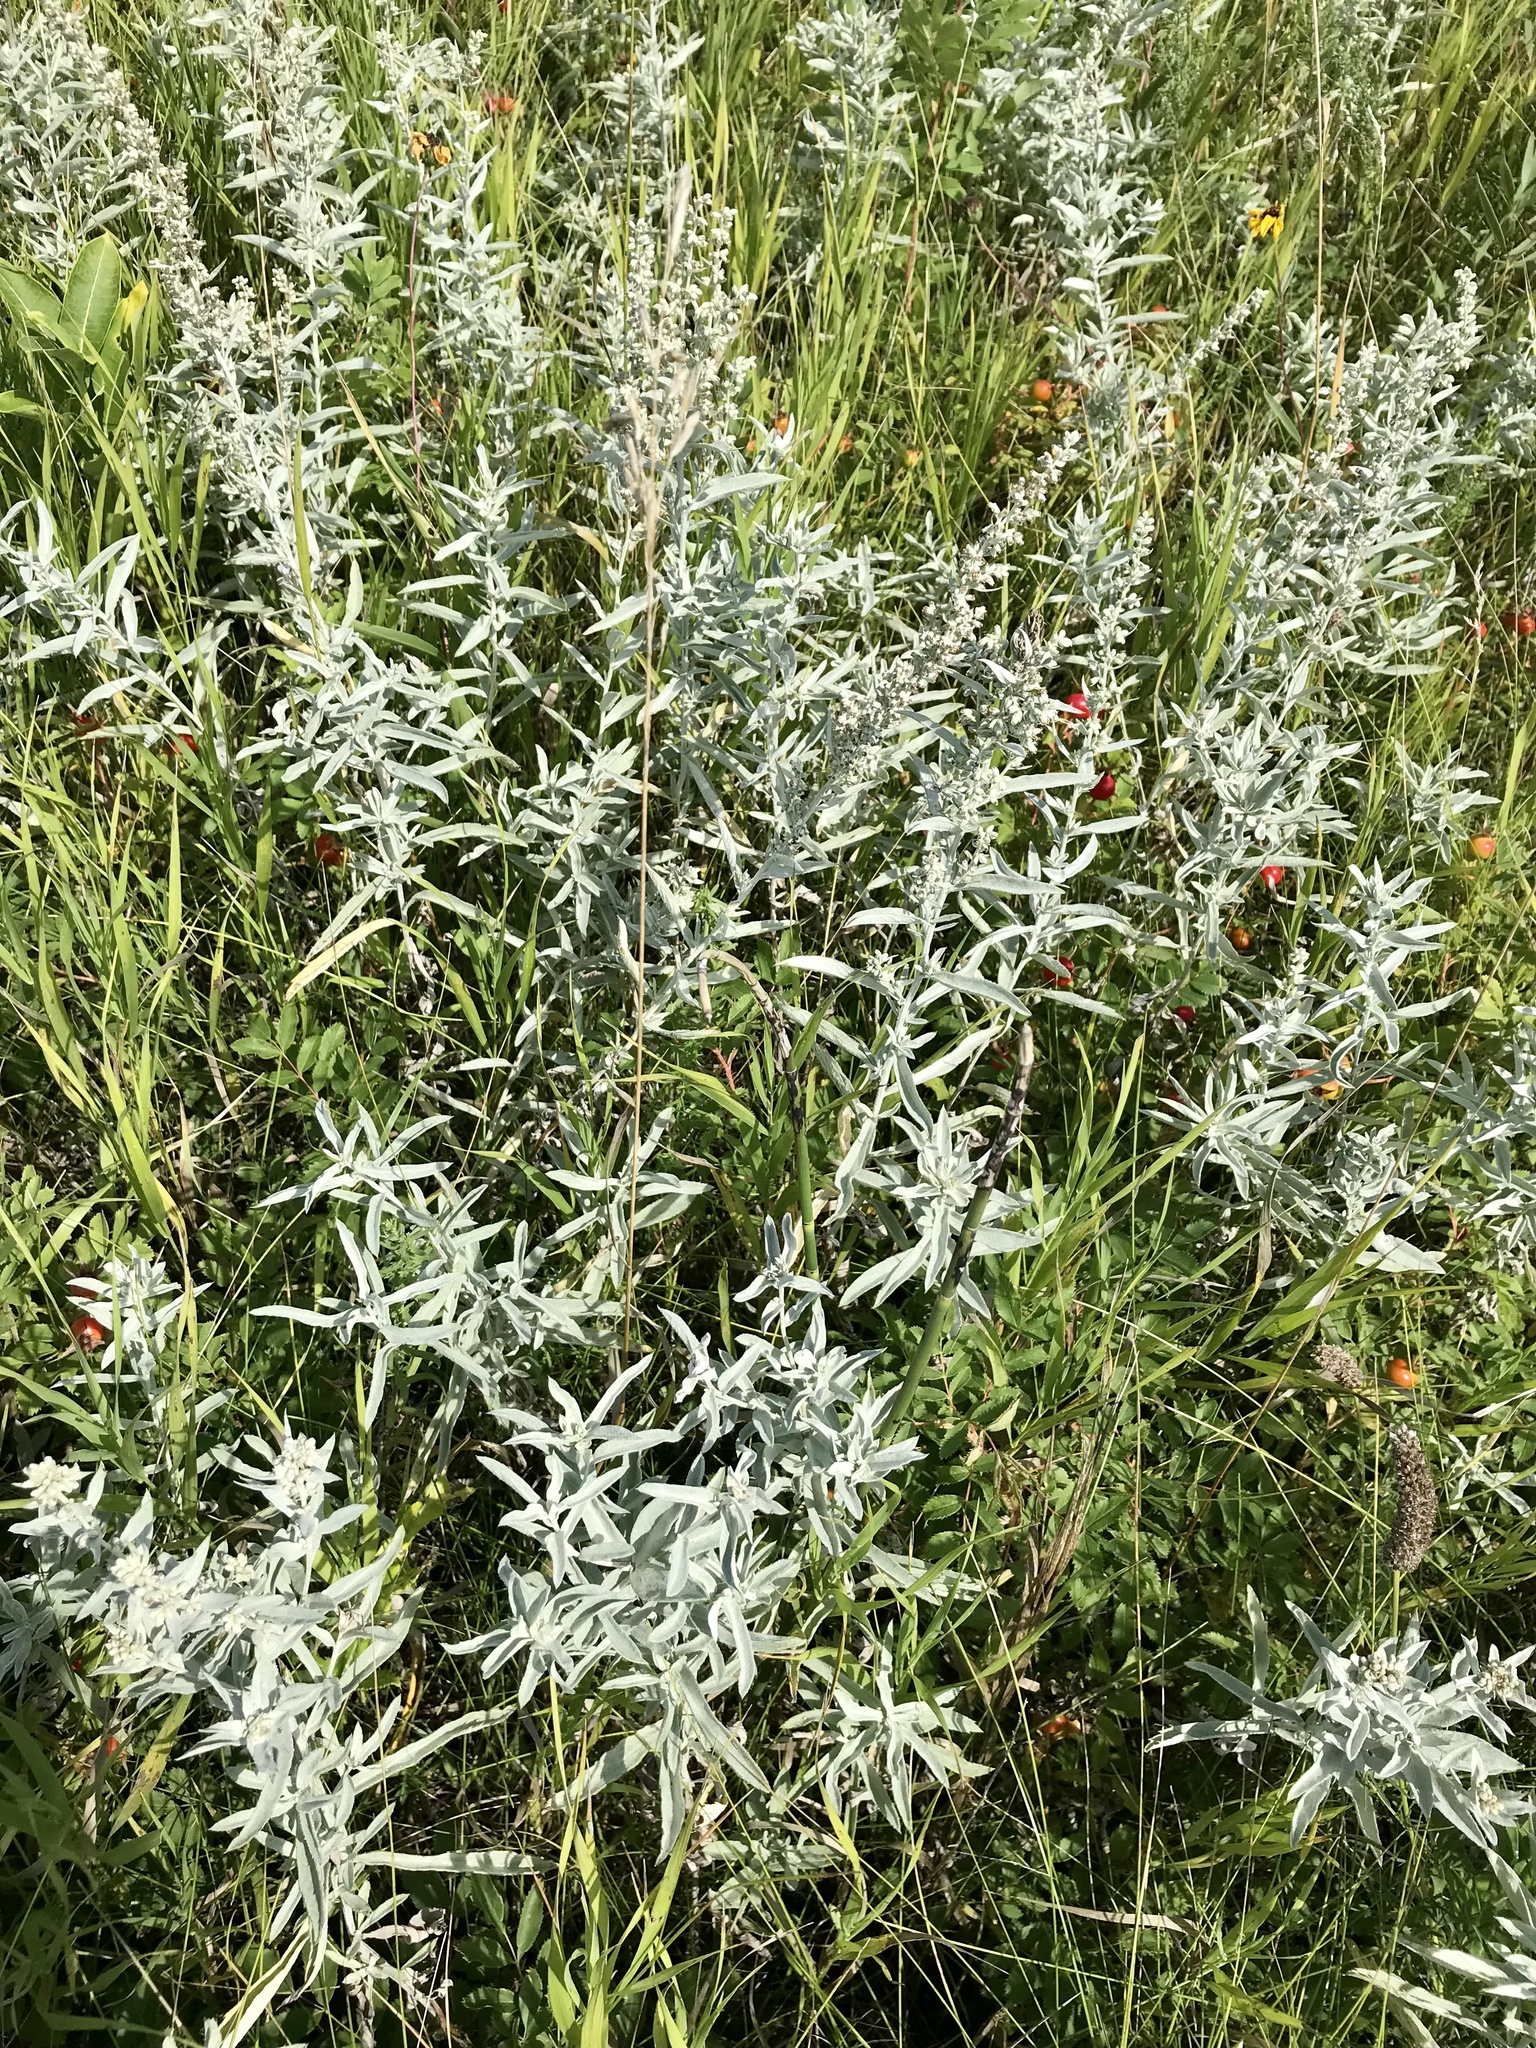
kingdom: Plantae
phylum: Tracheophyta
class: Magnoliopsida
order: Asterales
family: Asteraceae
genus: Artemisia
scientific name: Artemisia ludoviciana
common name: Western mugwort
